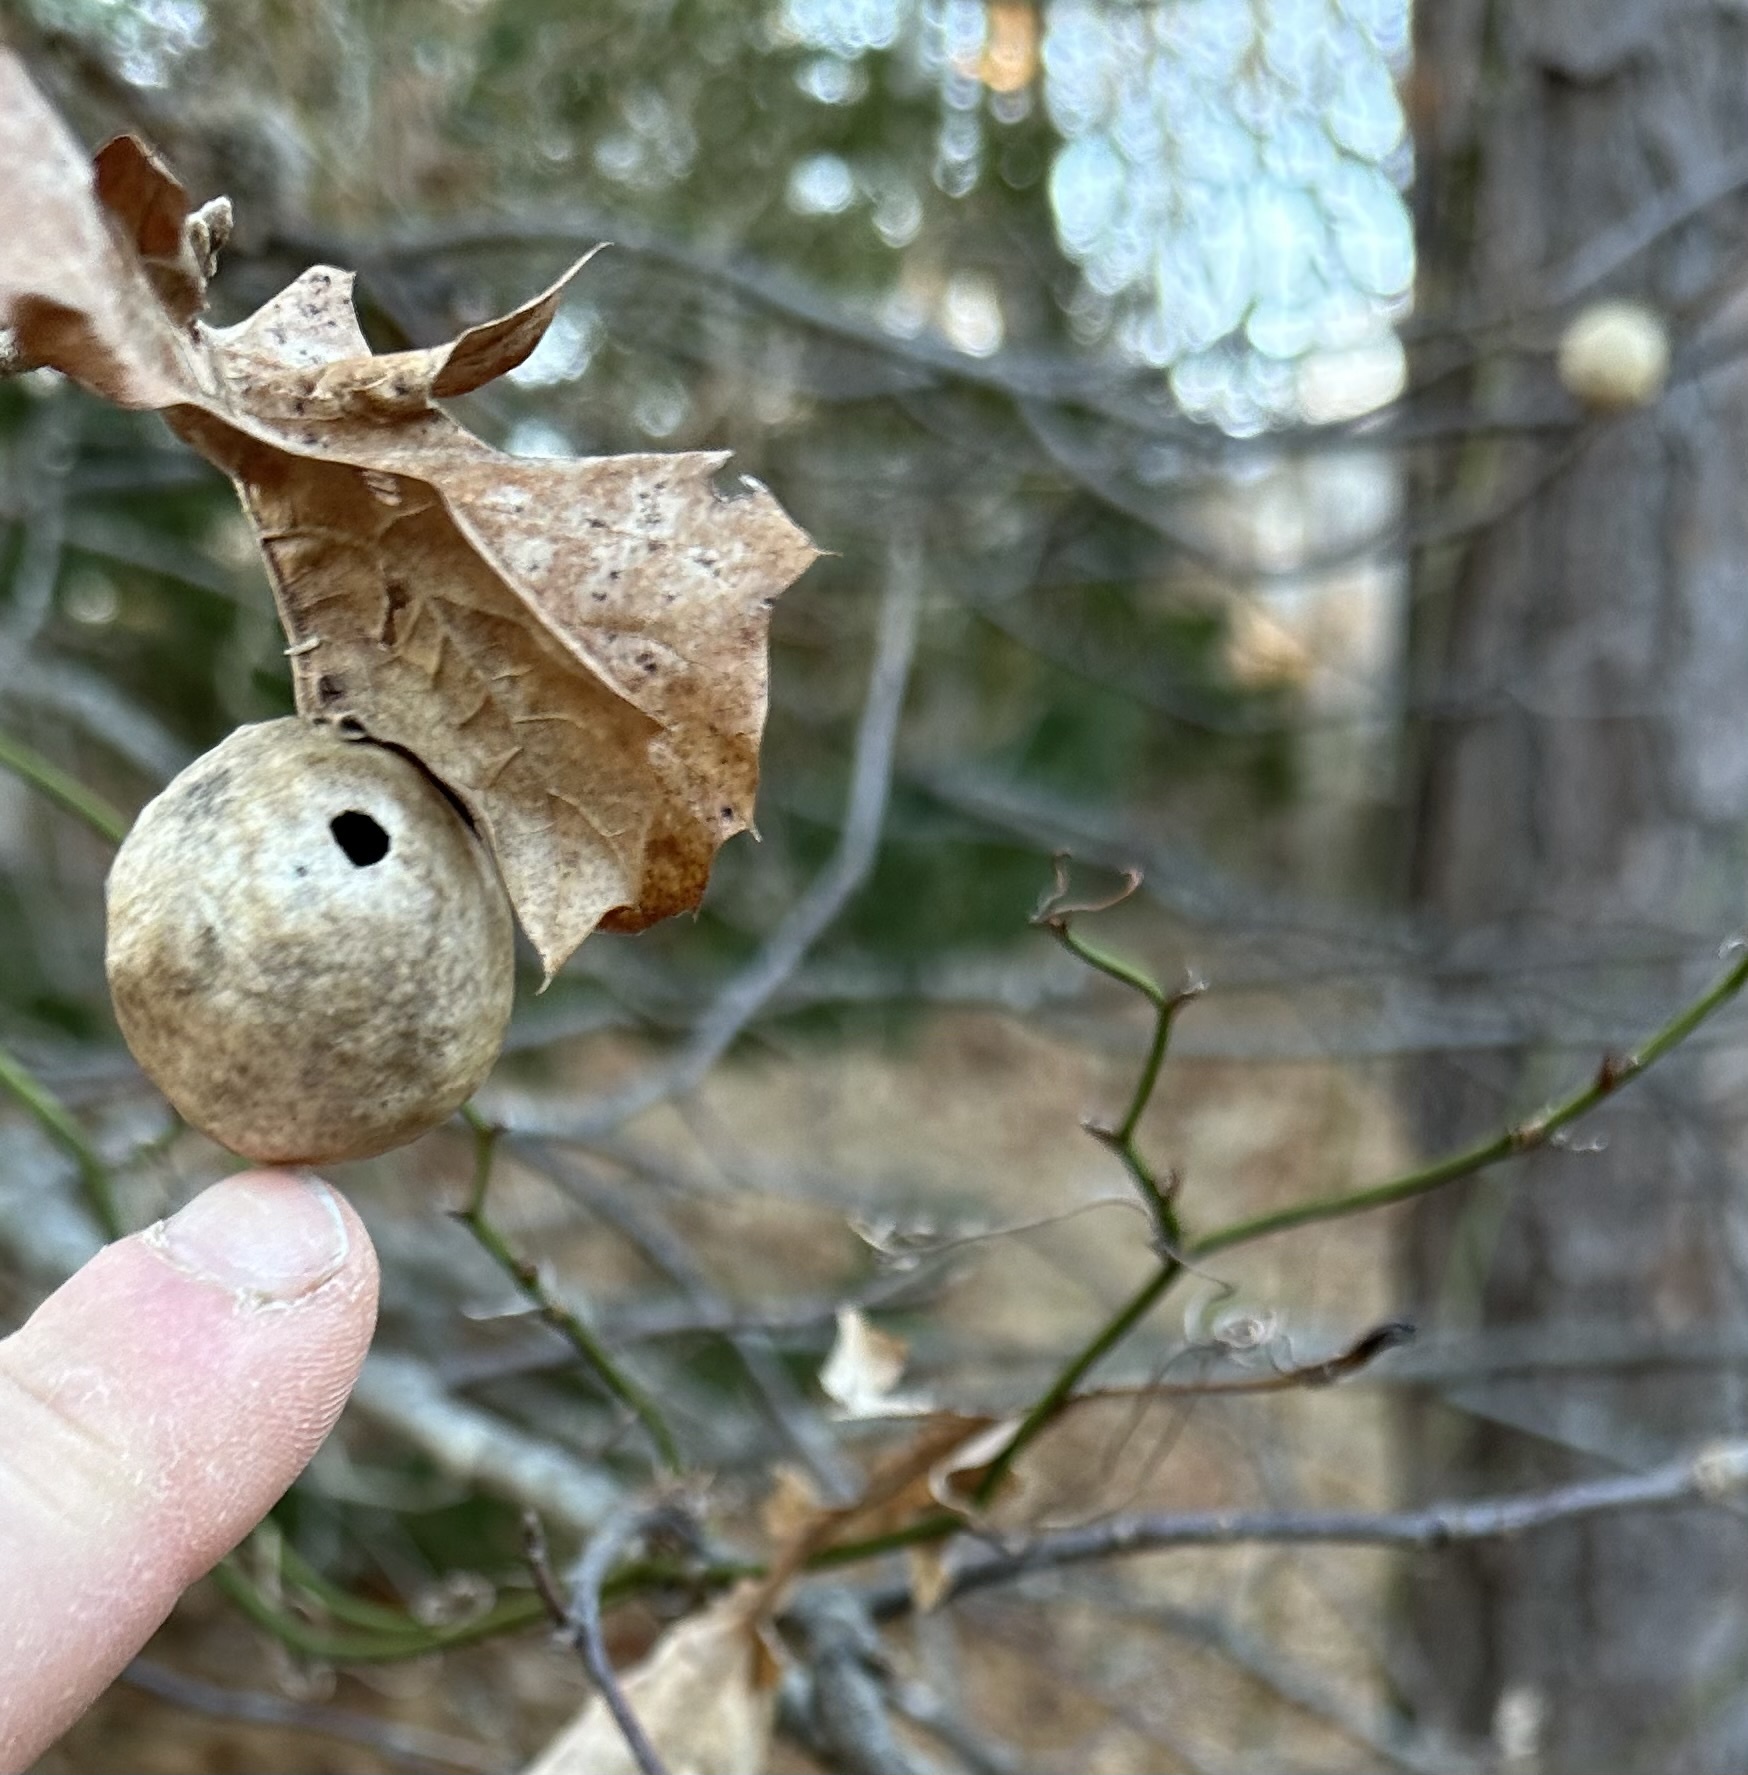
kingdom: Animalia
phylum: Arthropoda
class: Insecta
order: Hymenoptera
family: Cynipidae
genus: Amphibolips
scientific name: Amphibolips
